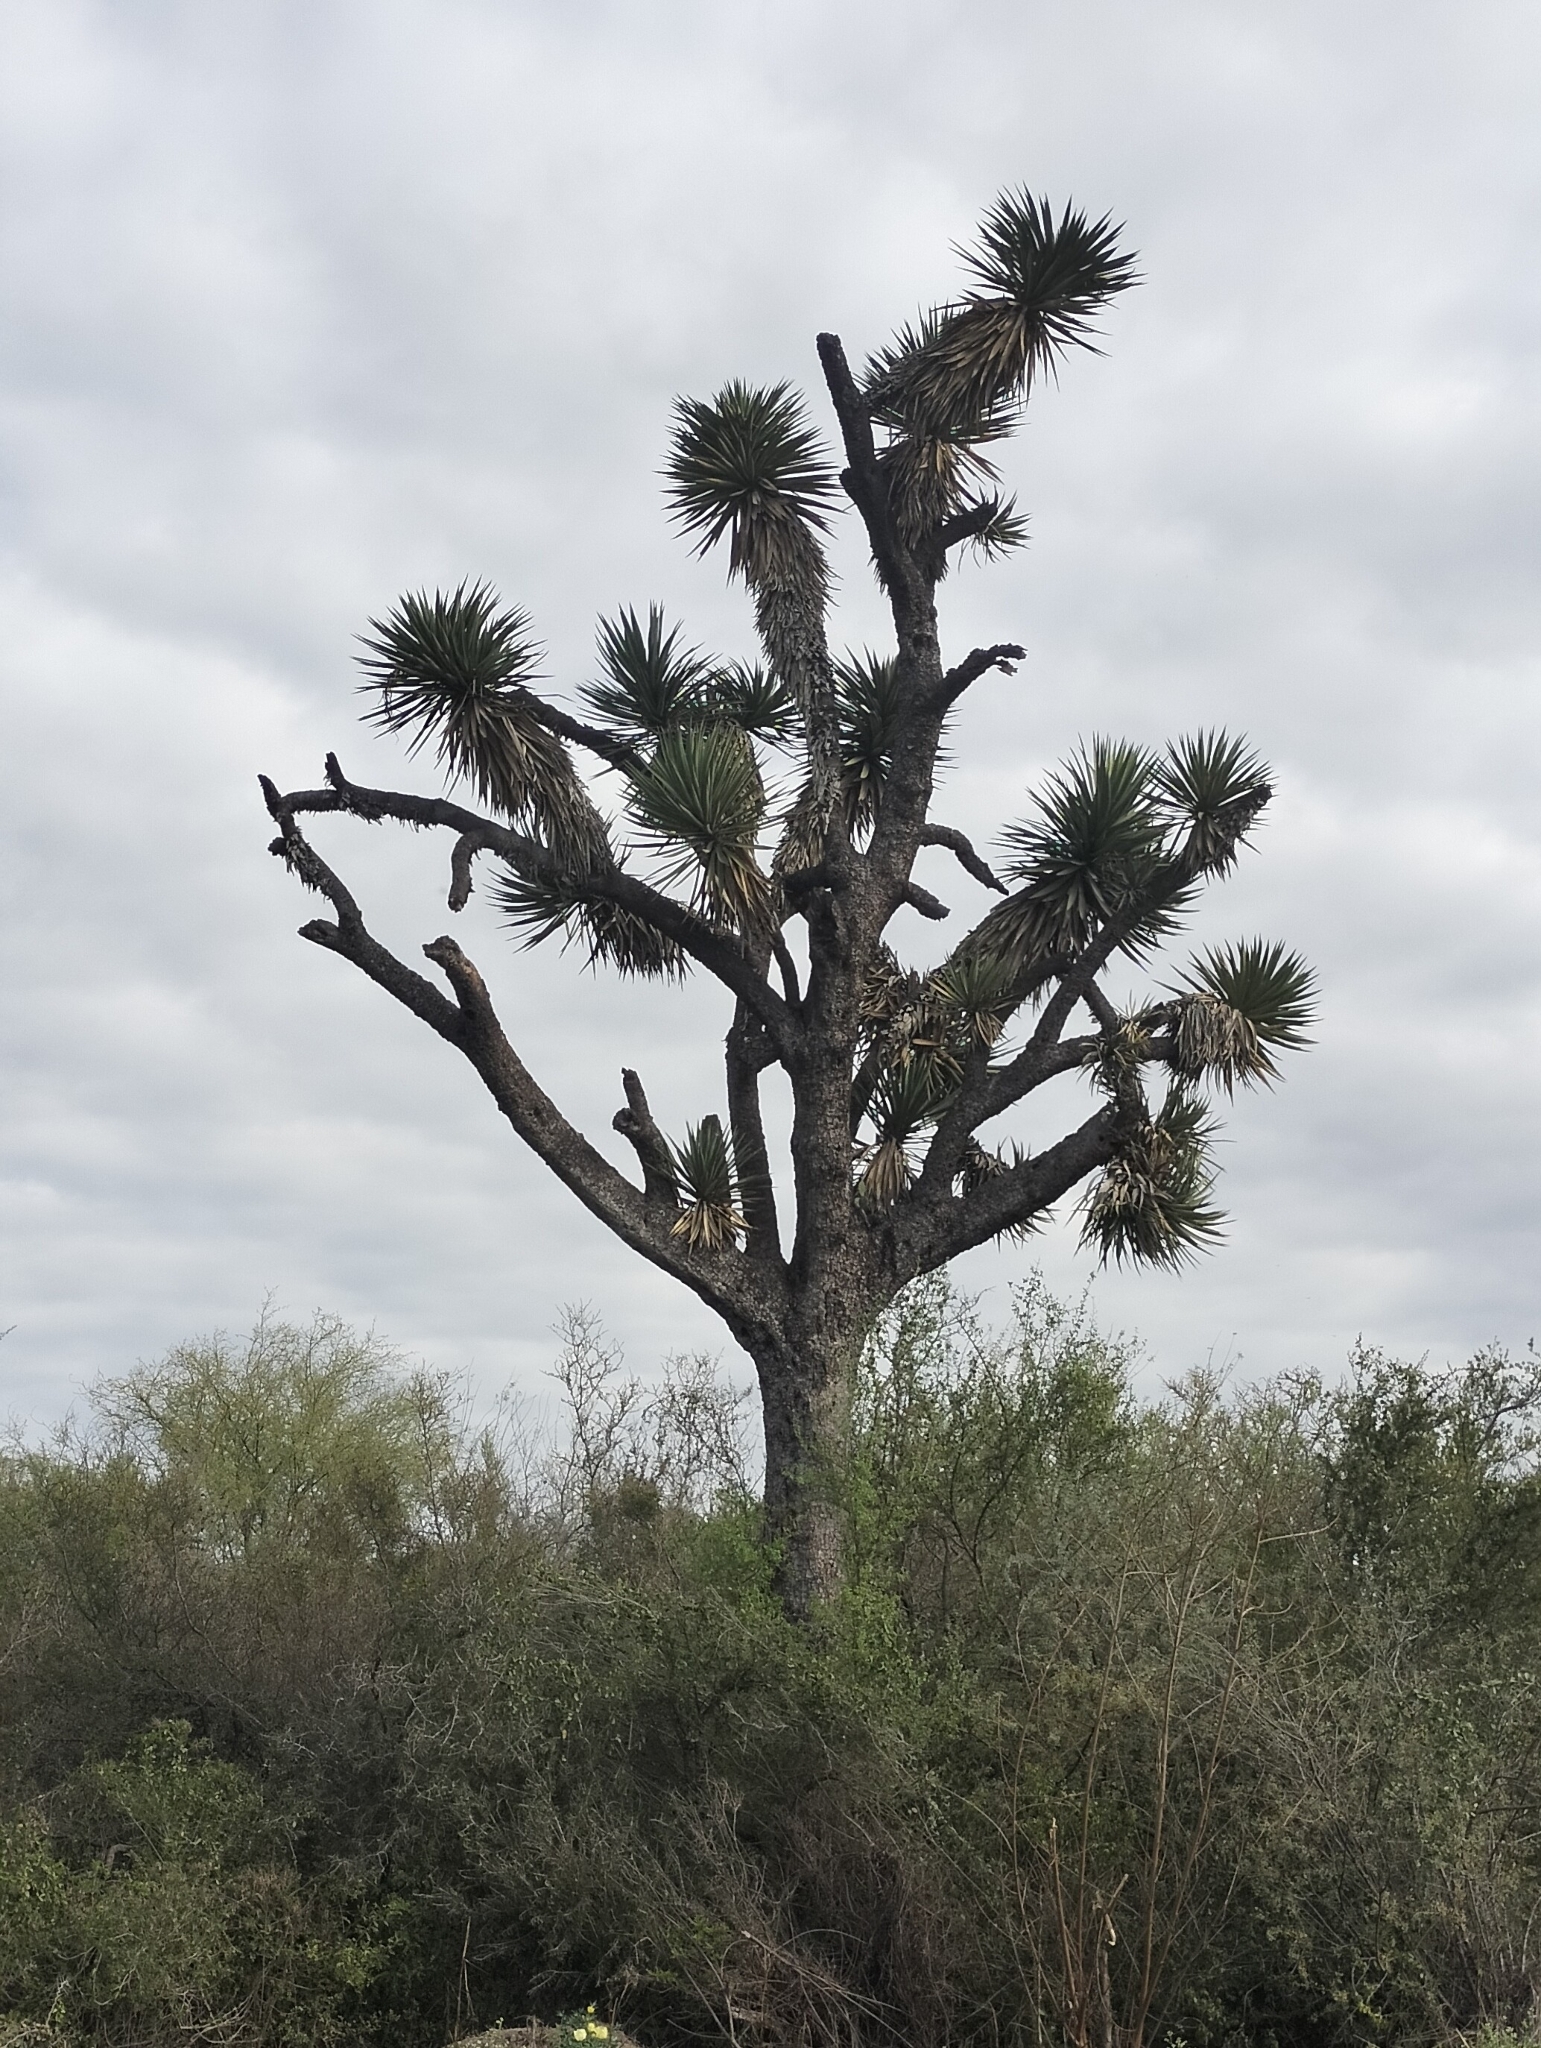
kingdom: Plantae
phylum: Tracheophyta
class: Liliopsida
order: Asparagales
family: Asparagaceae
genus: Yucca
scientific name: Yucca filifera
